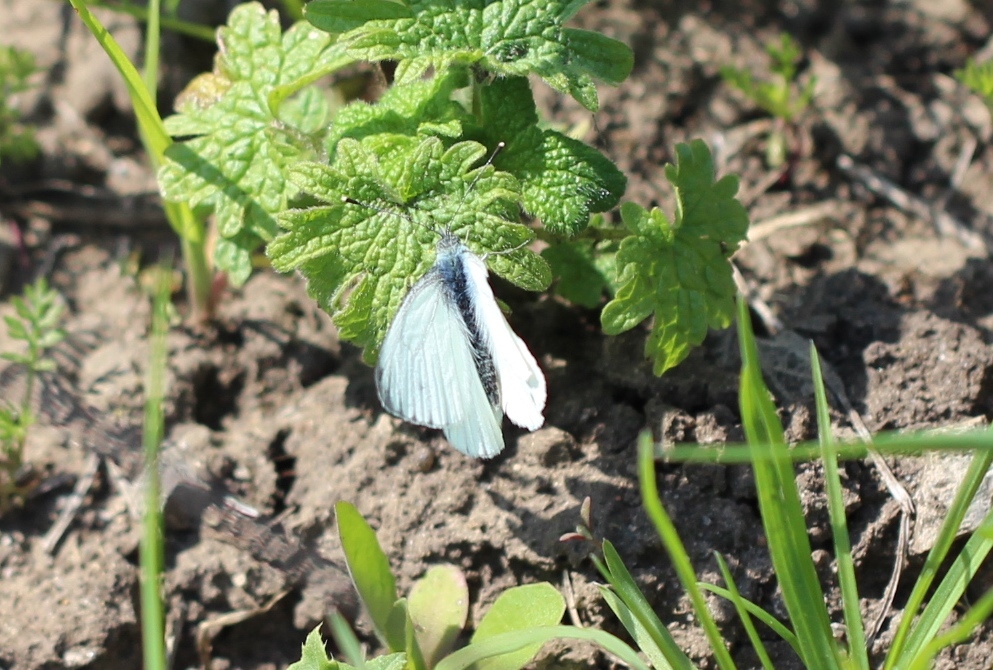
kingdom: Animalia
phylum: Arthropoda
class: Insecta
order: Lepidoptera
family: Pieridae
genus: Pieris
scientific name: Pieris napi
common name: Green-veined white
